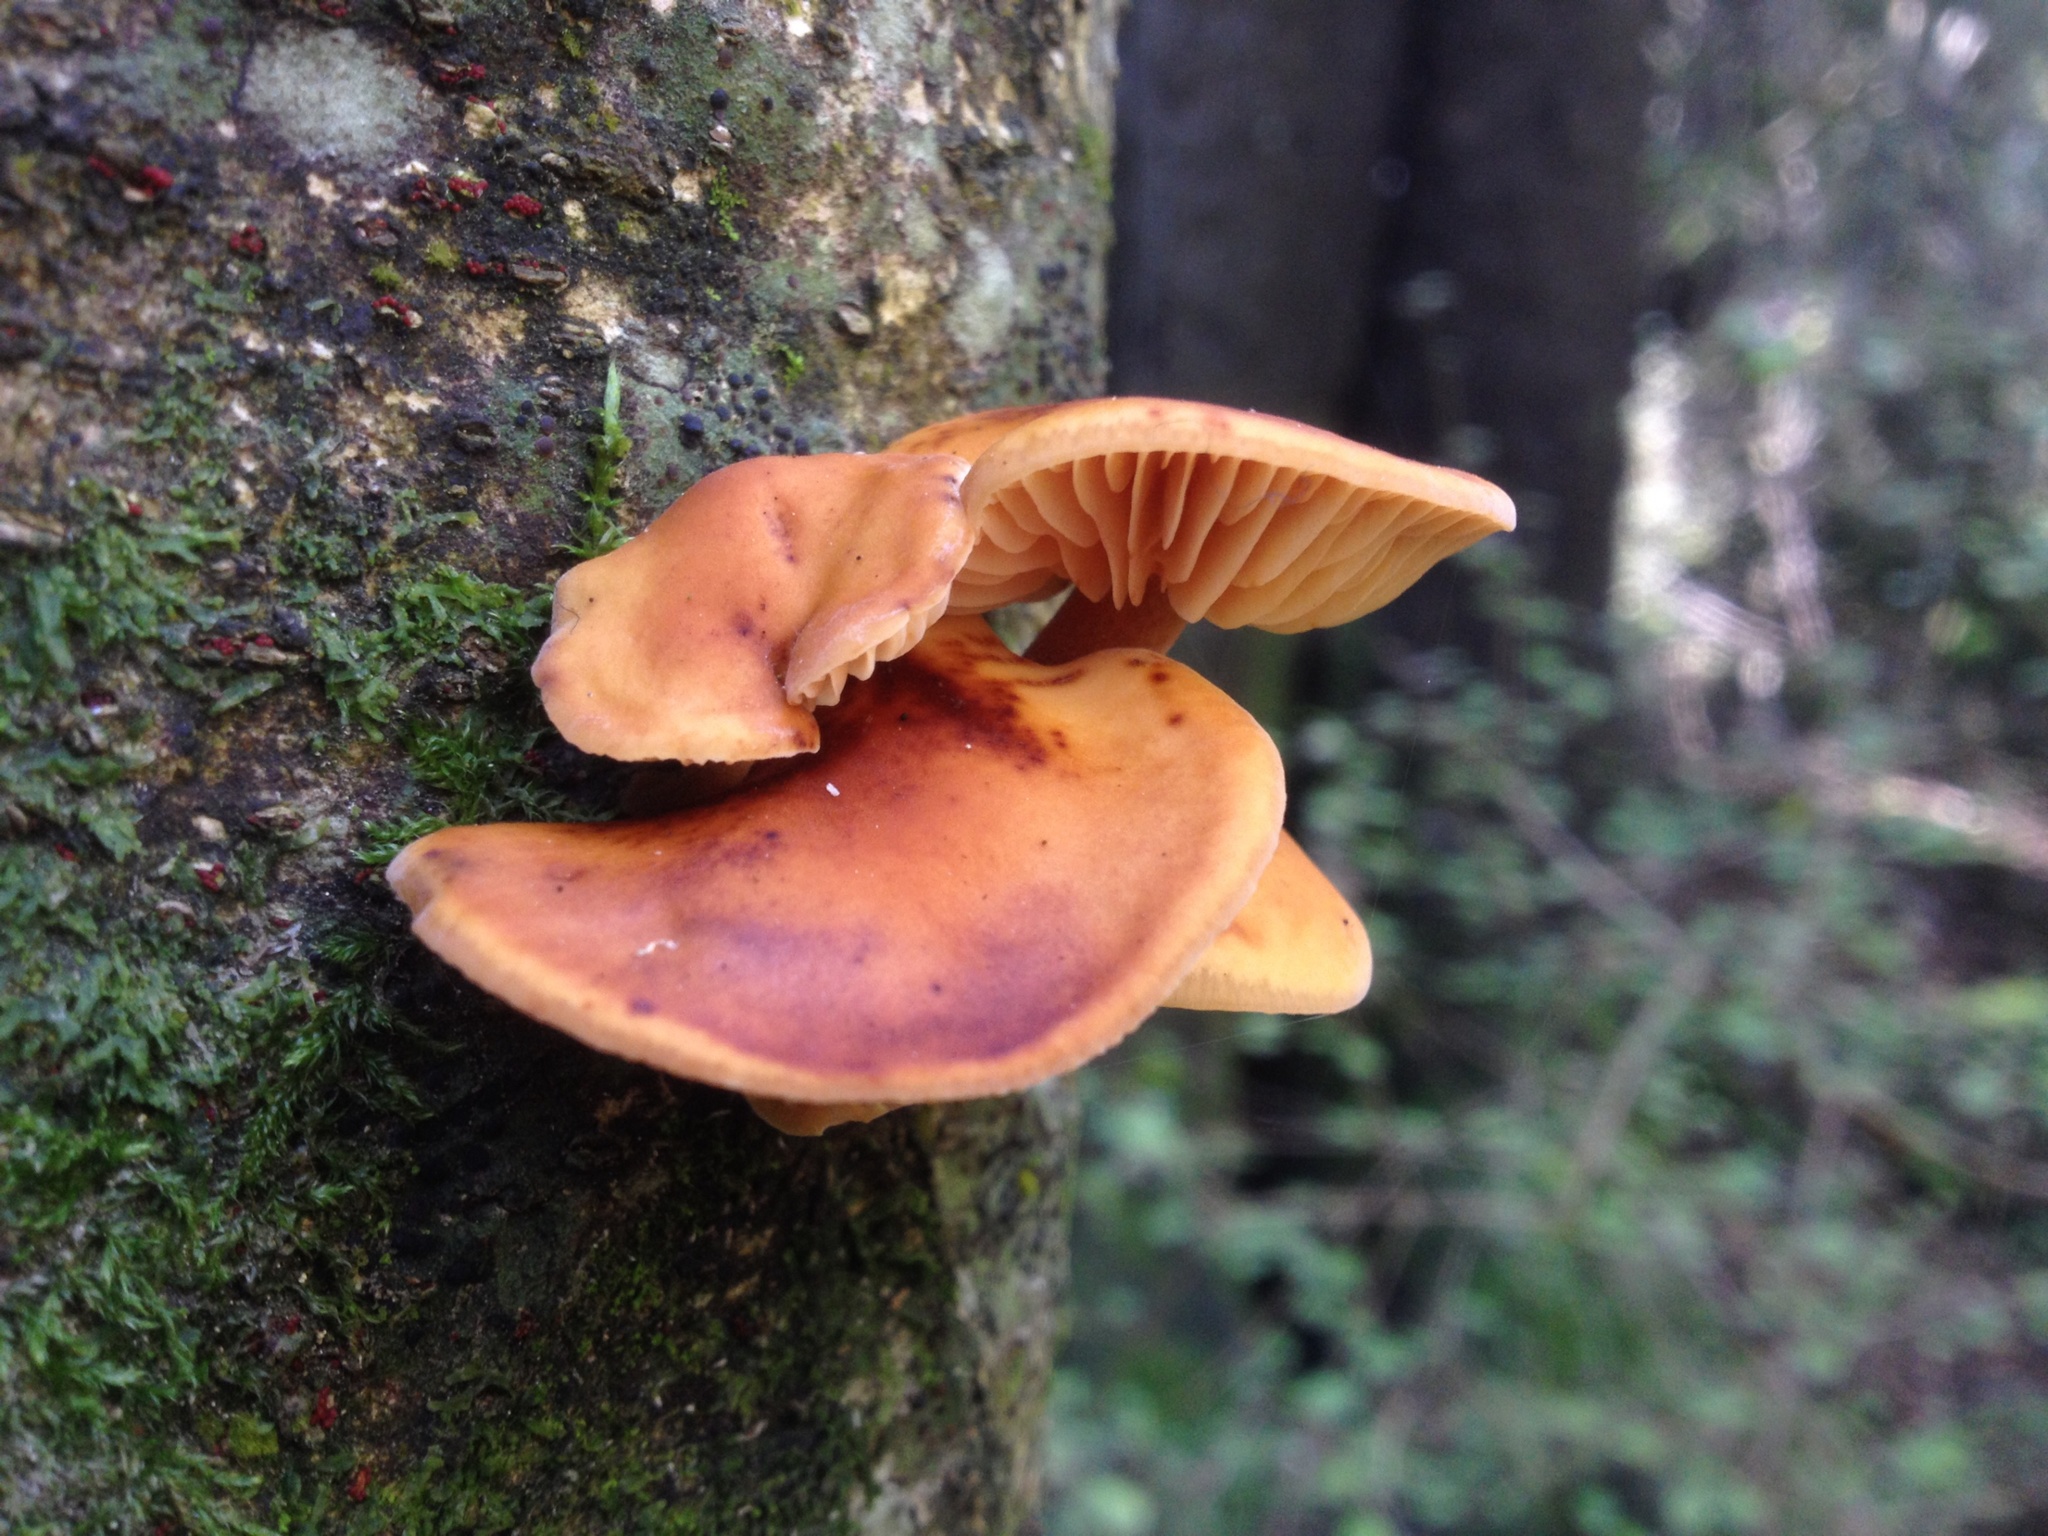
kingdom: Fungi
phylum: Basidiomycota
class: Agaricomycetes
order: Agaricales
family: Physalacriaceae
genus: Flammulina
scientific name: Flammulina velutipes
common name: Velvet shank
